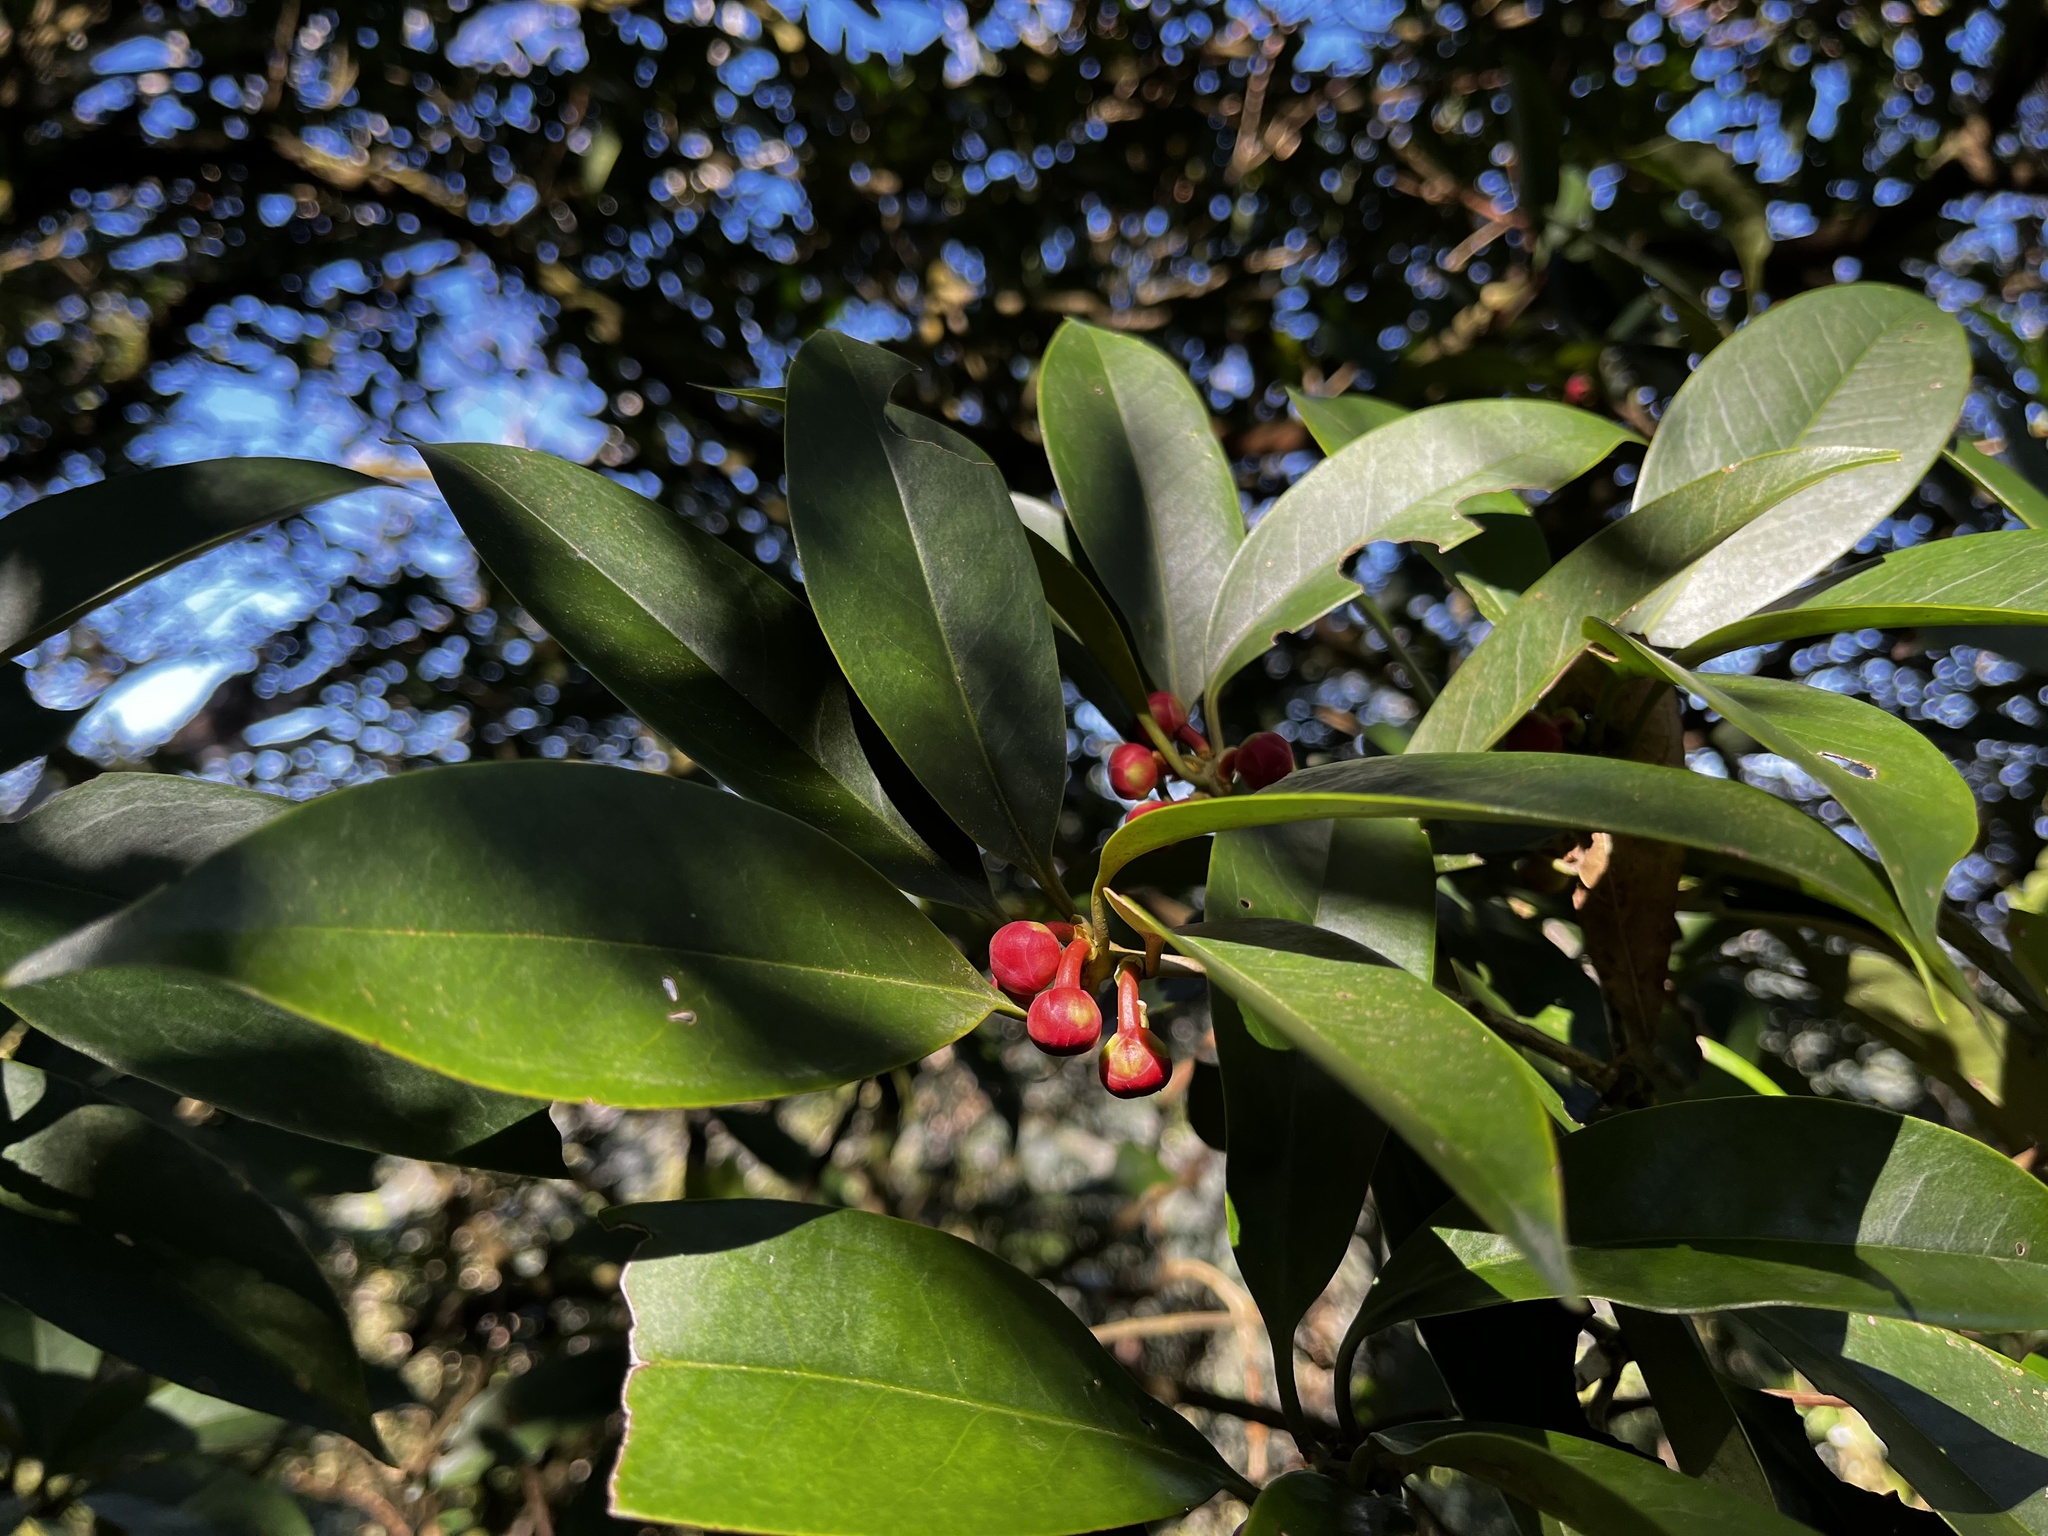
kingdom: Plantae
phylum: Tracheophyta
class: Magnoliopsida
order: Austrobaileyales
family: Schisandraceae
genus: Illicium
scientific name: Illicium arborescens
